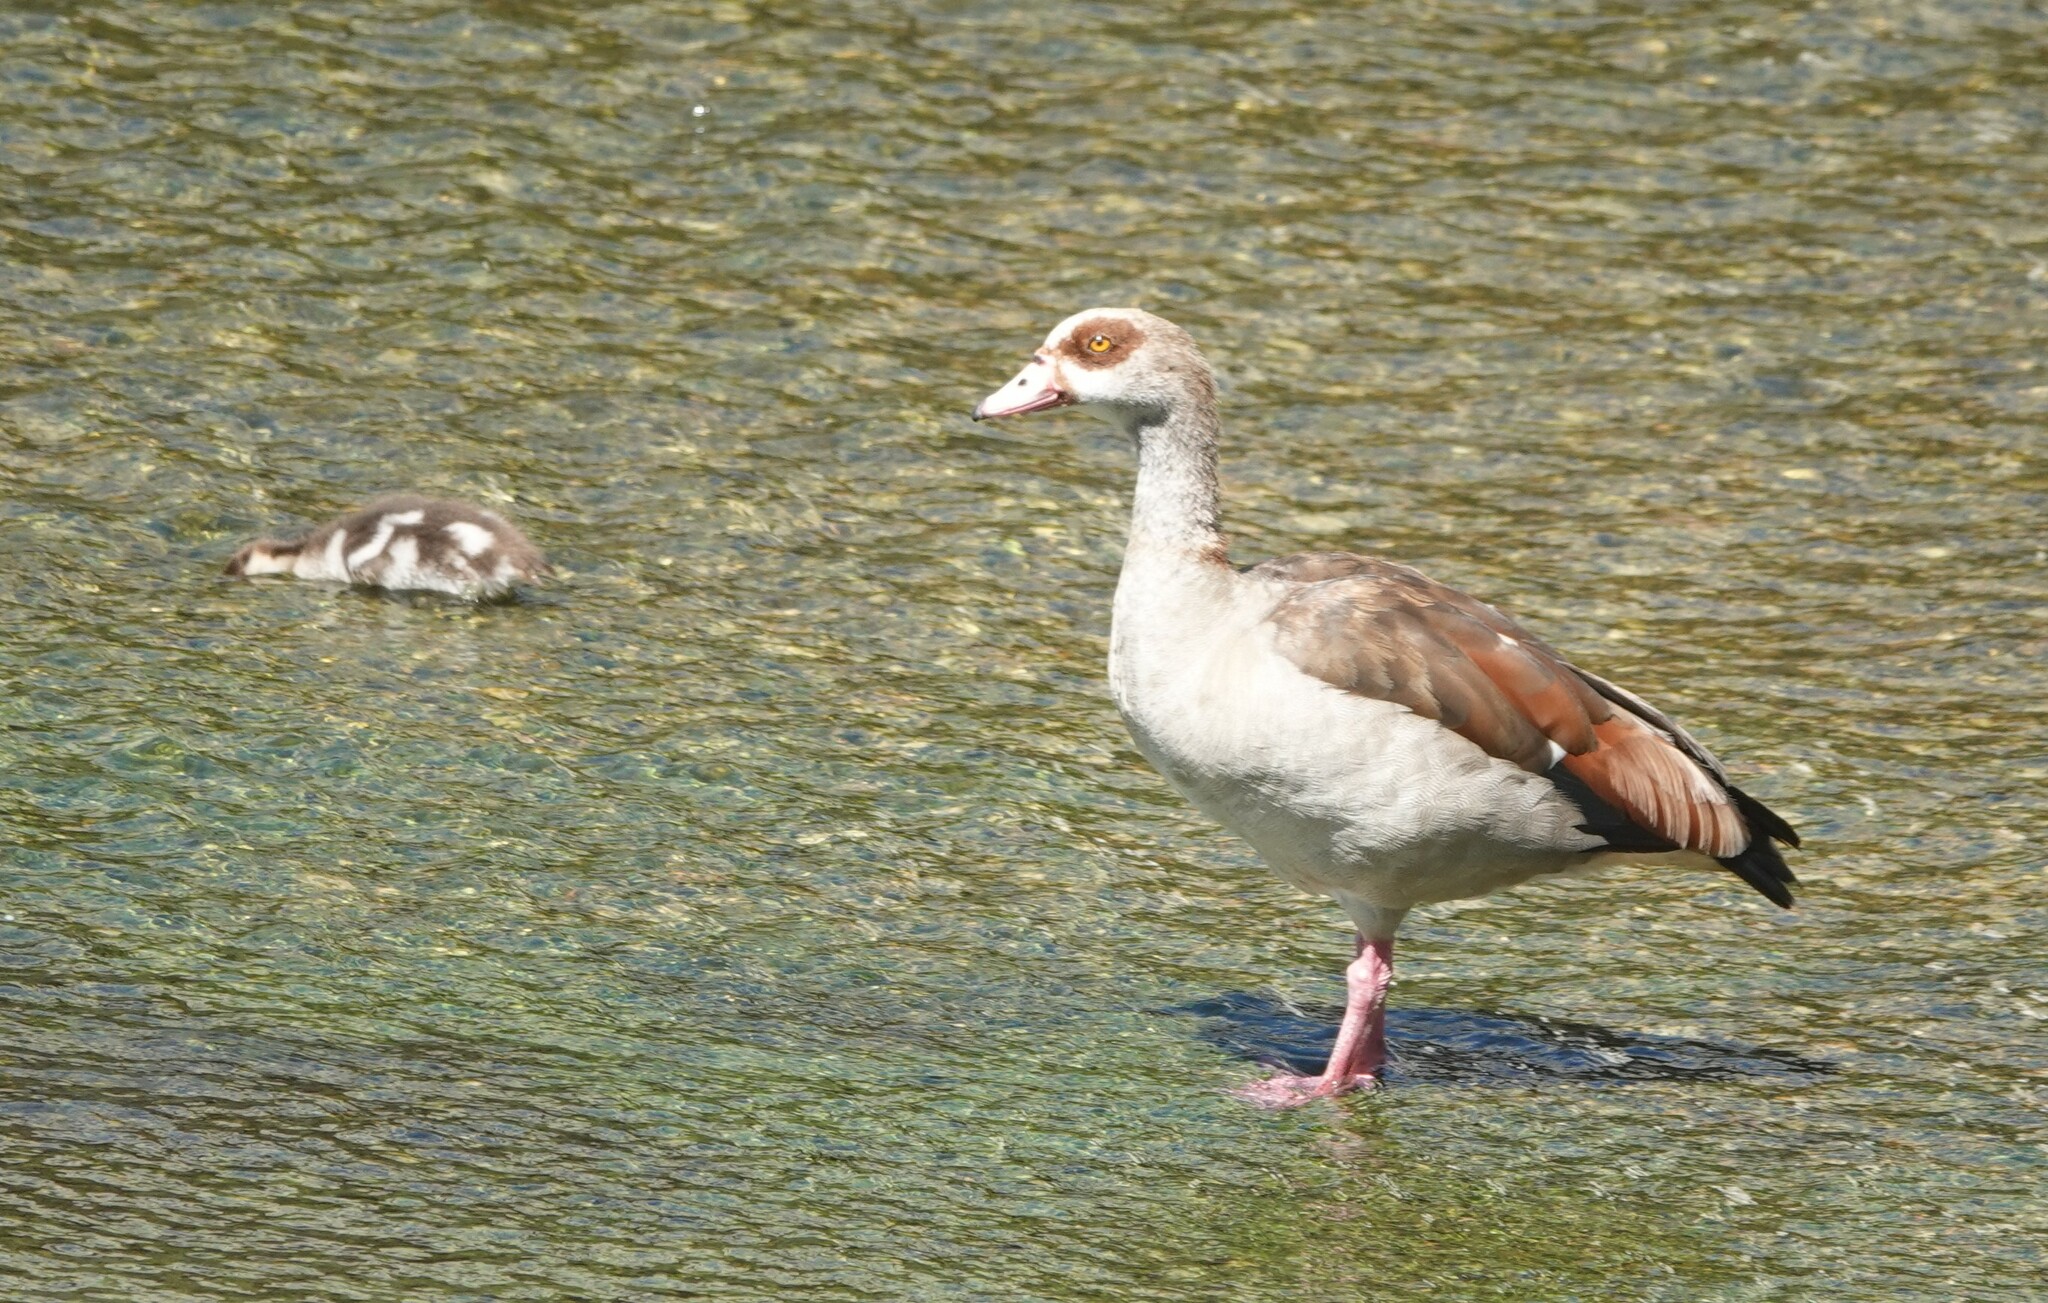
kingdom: Animalia
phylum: Chordata
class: Aves
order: Anseriformes
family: Anatidae
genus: Alopochen
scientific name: Alopochen aegyptiaca
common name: Egyptian goose
